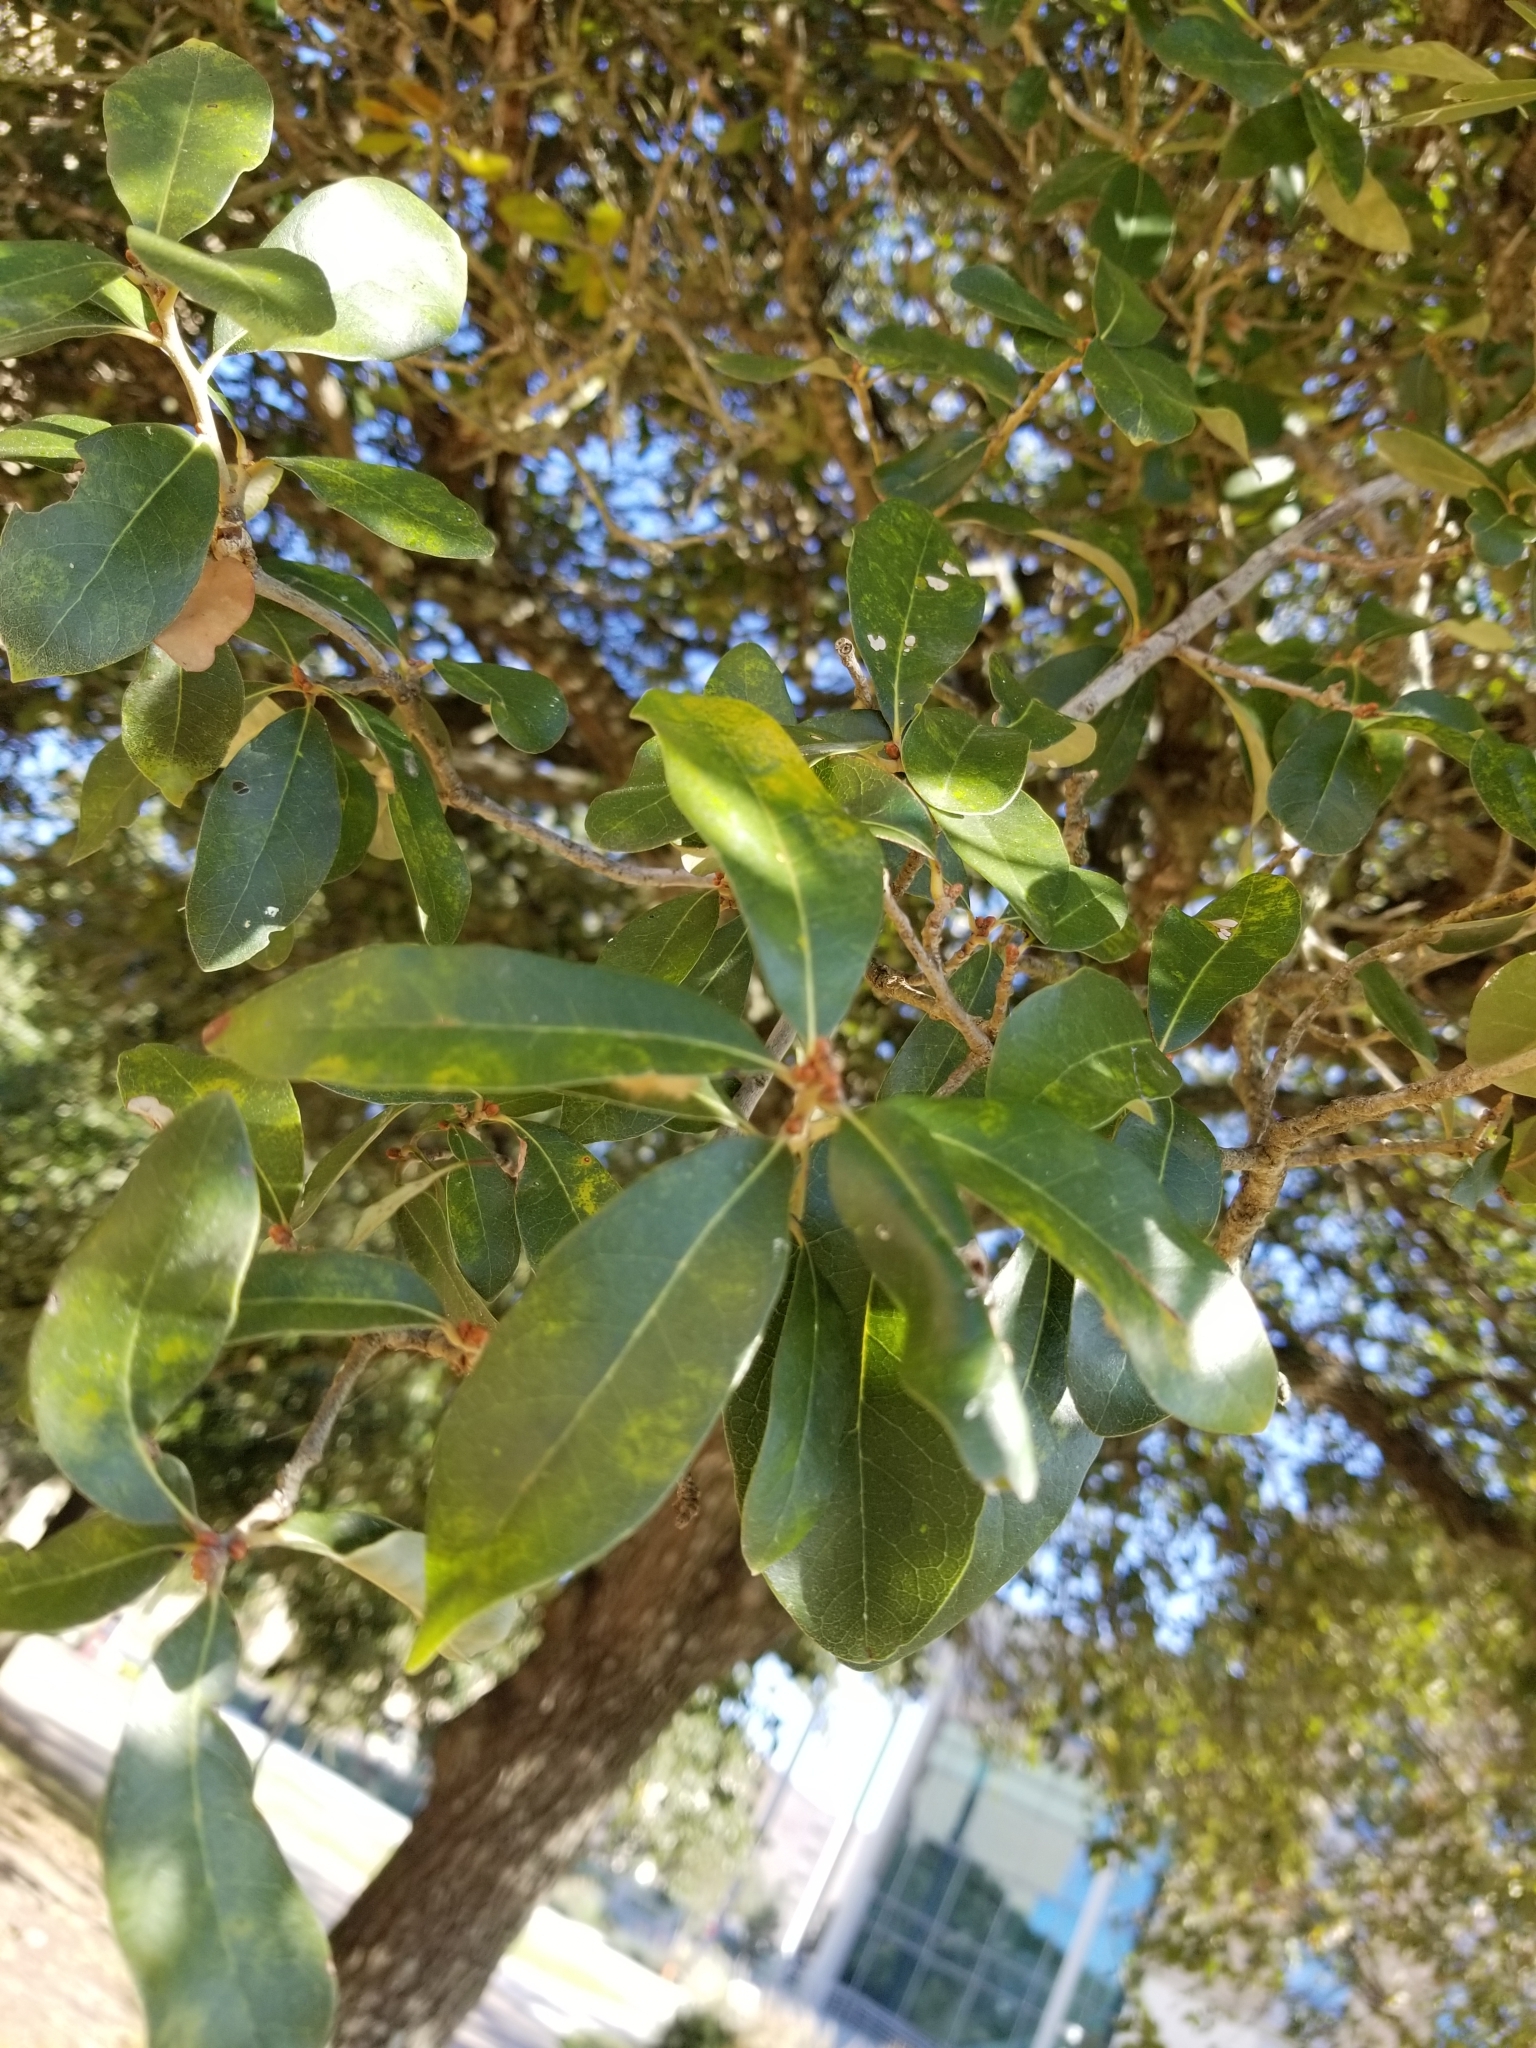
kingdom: Plantae
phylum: Tracheophyta
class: Magnoliopsida
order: Fagales
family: Fagaceae
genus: Quercus
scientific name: Quercus virginiana
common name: Southern live oak
